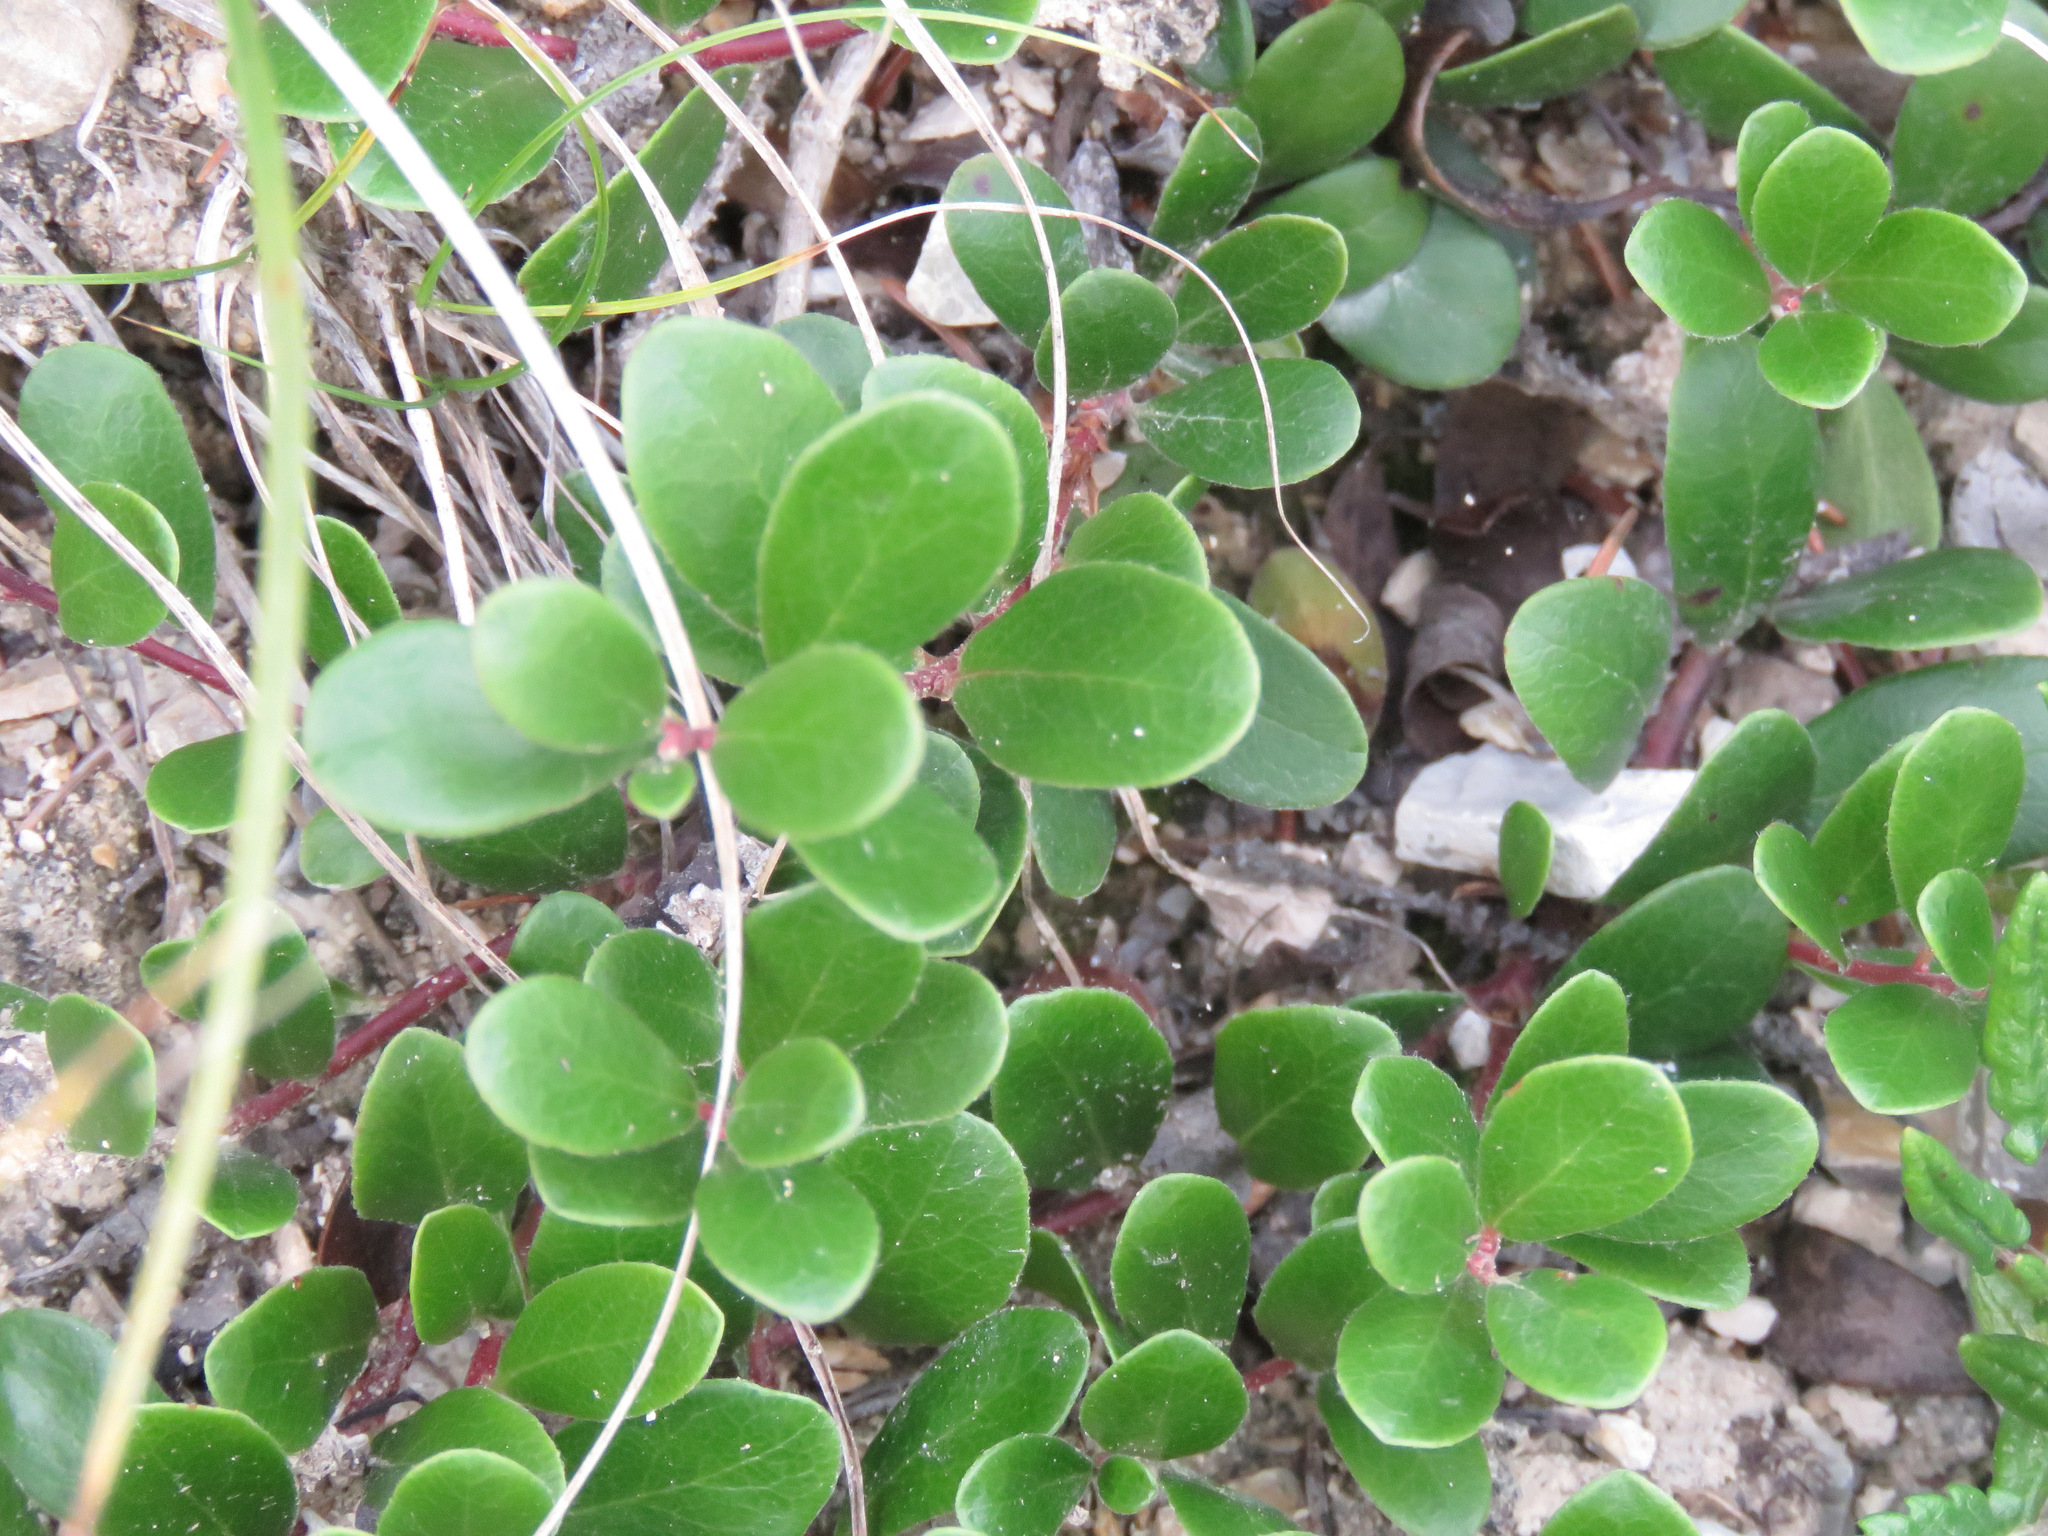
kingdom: Plantae
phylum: Tracheophyta
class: Magnoliopsida
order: Ericales
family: Ericaceae
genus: Arctostaphylos
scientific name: Arctostaphylos uva-ursi
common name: Bearberry
